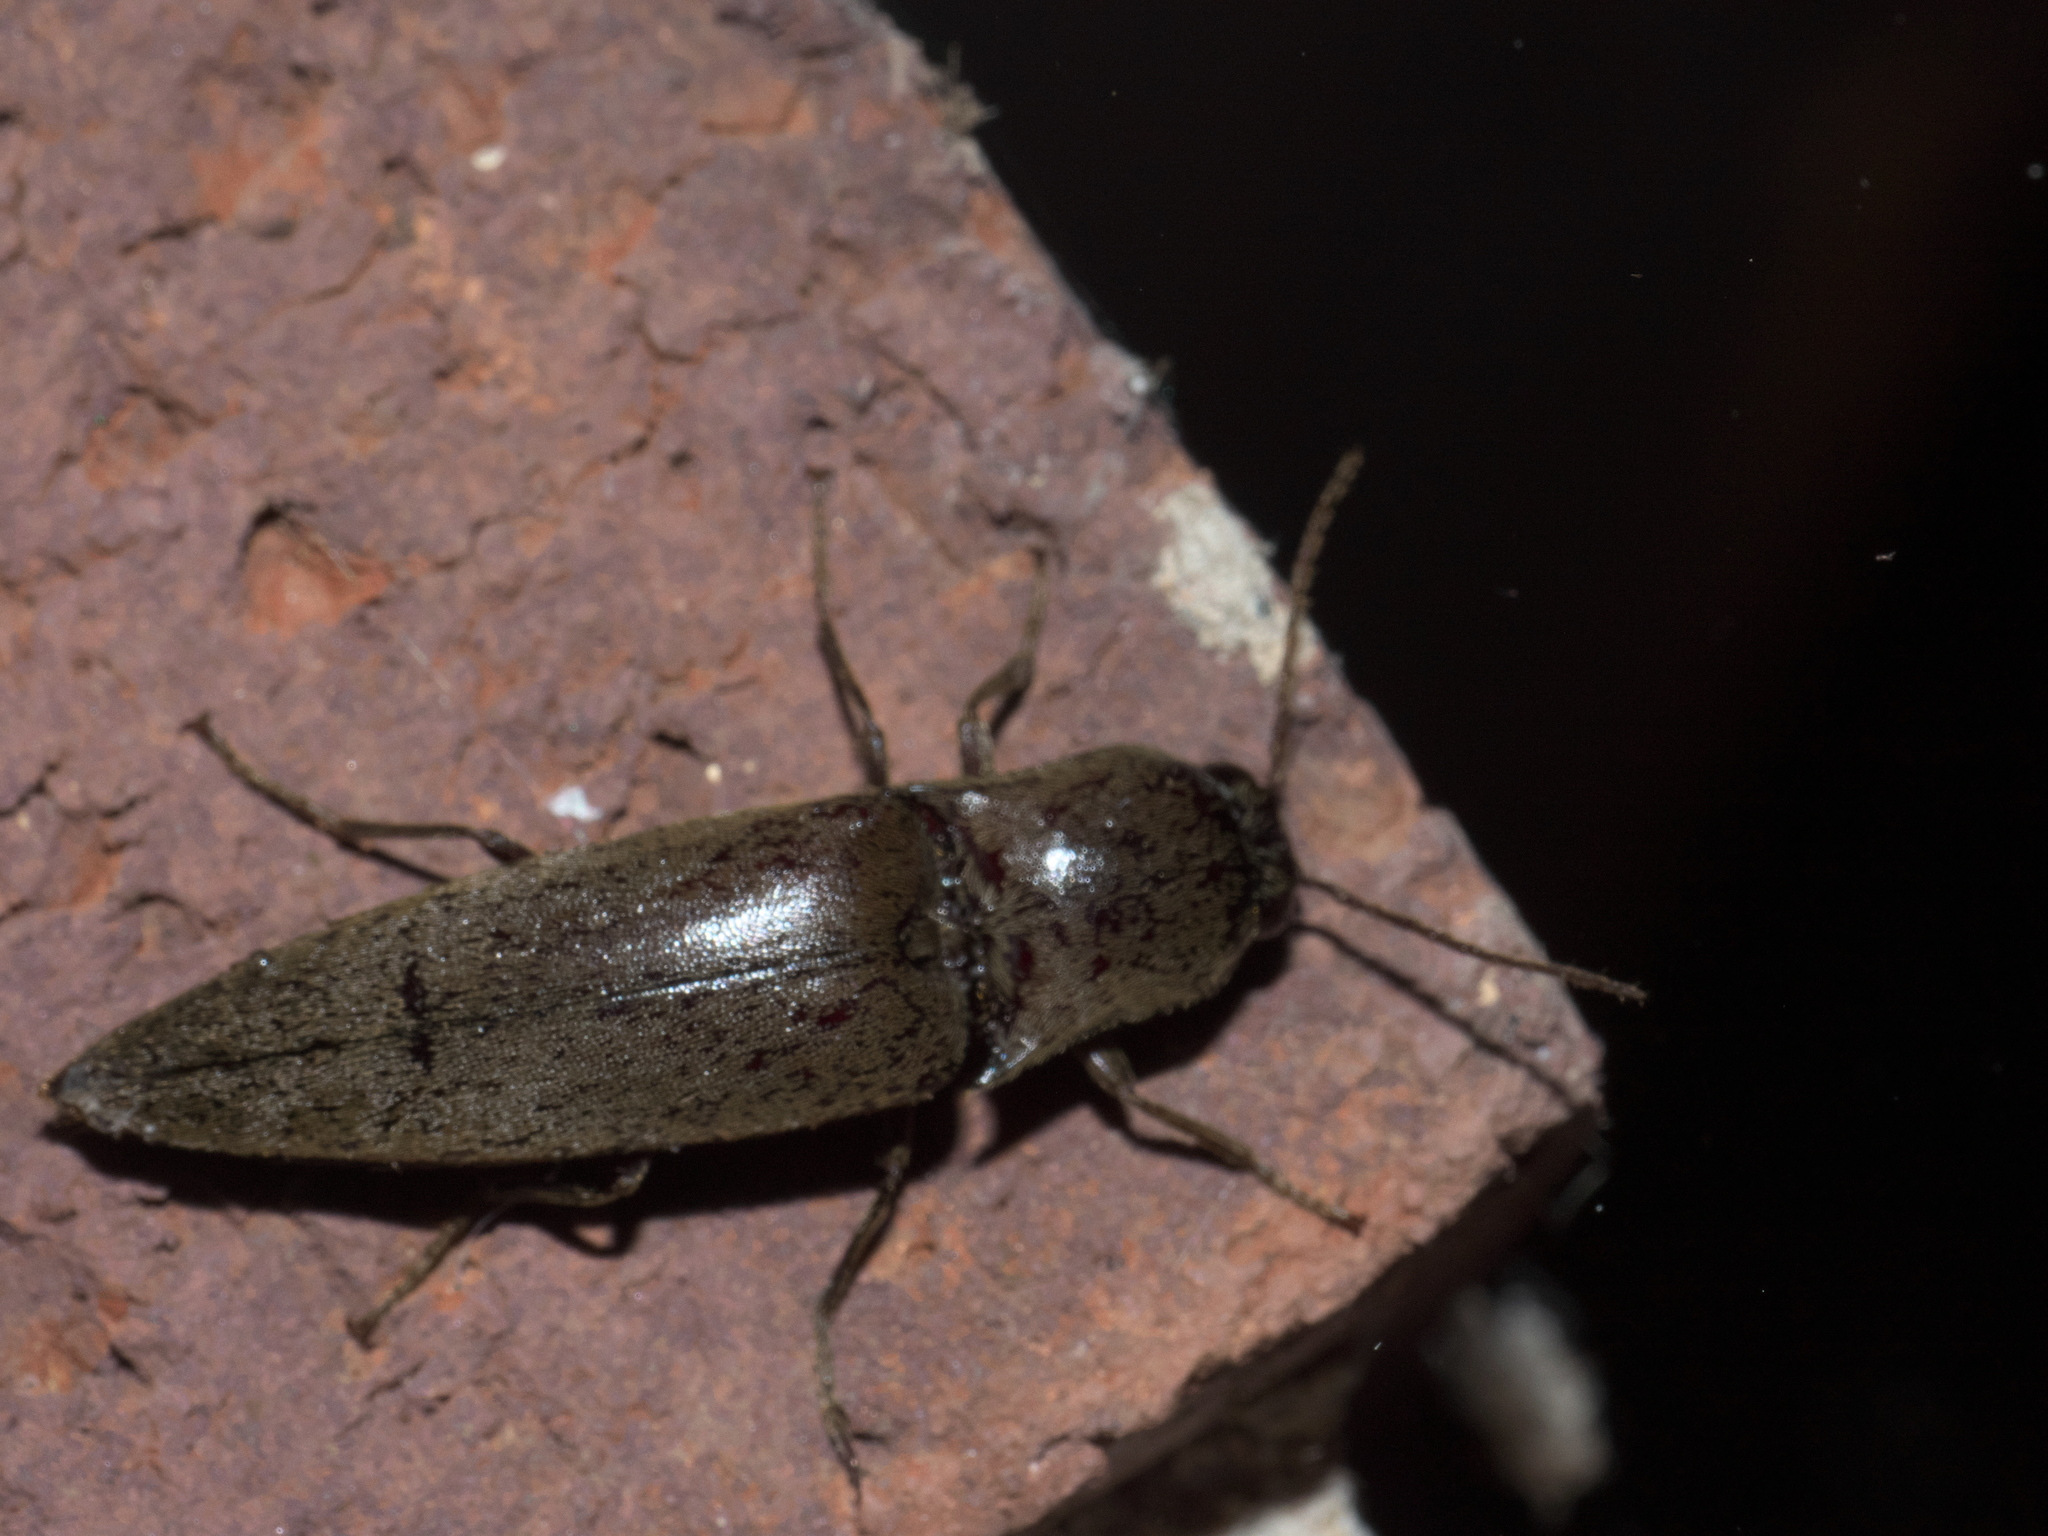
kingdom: Animalia
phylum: Arthropoda
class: Insecta
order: Coleoptera
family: Elateridae
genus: Orthostethus
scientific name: Orthostethus infuscatus
